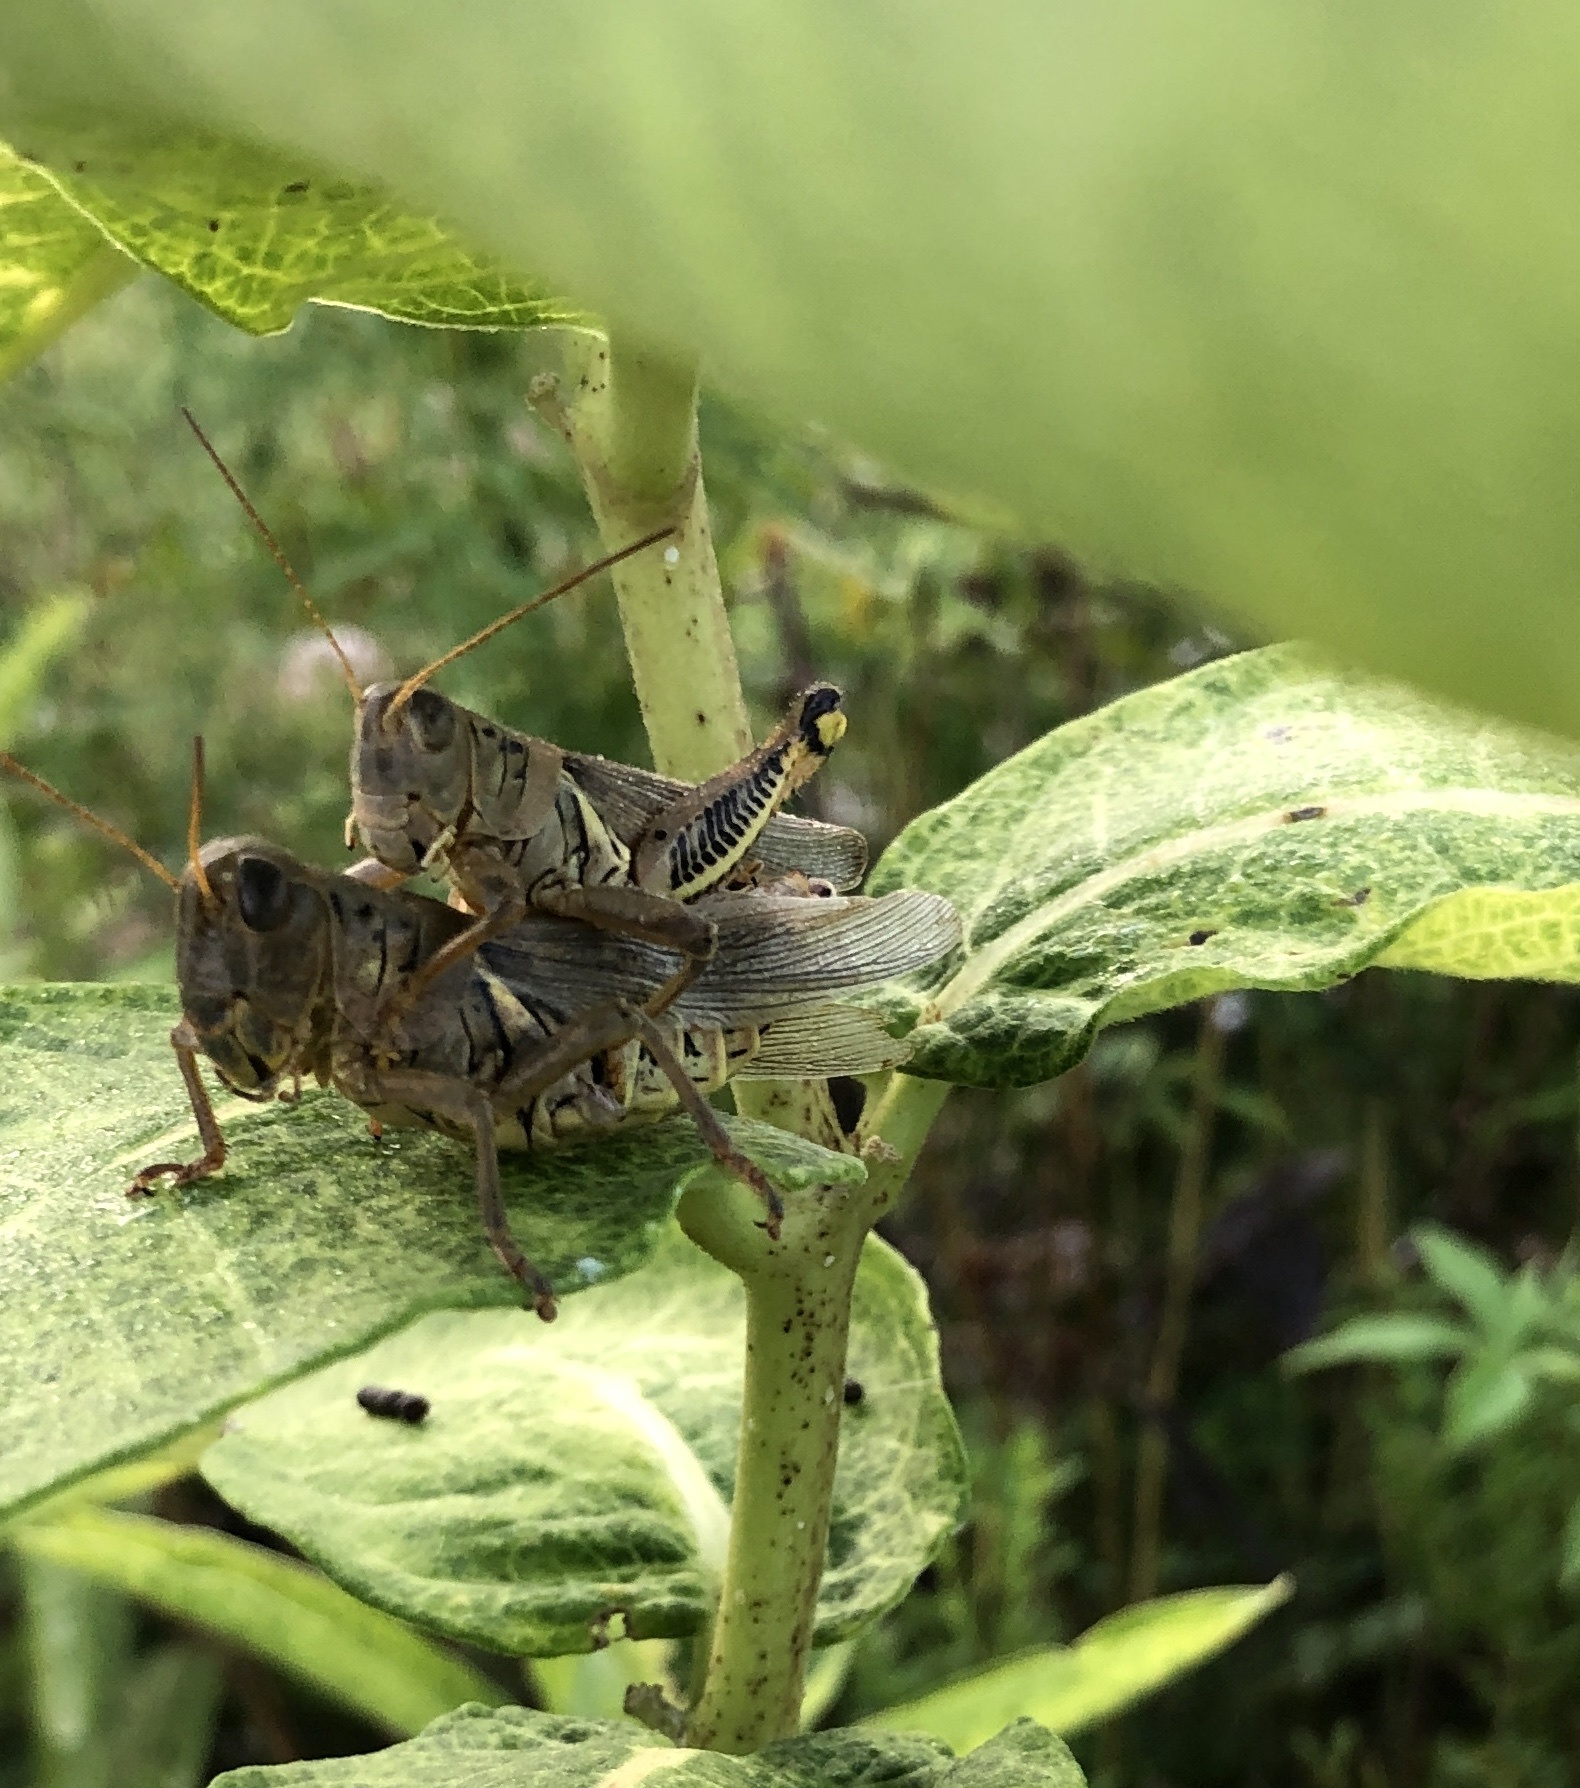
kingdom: Animalia
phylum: Arthropoda
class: Insecta
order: Orthoptera
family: Acrididae
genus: Melanoplus
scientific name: Melanoplus differentialis
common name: Differential grasshopper
